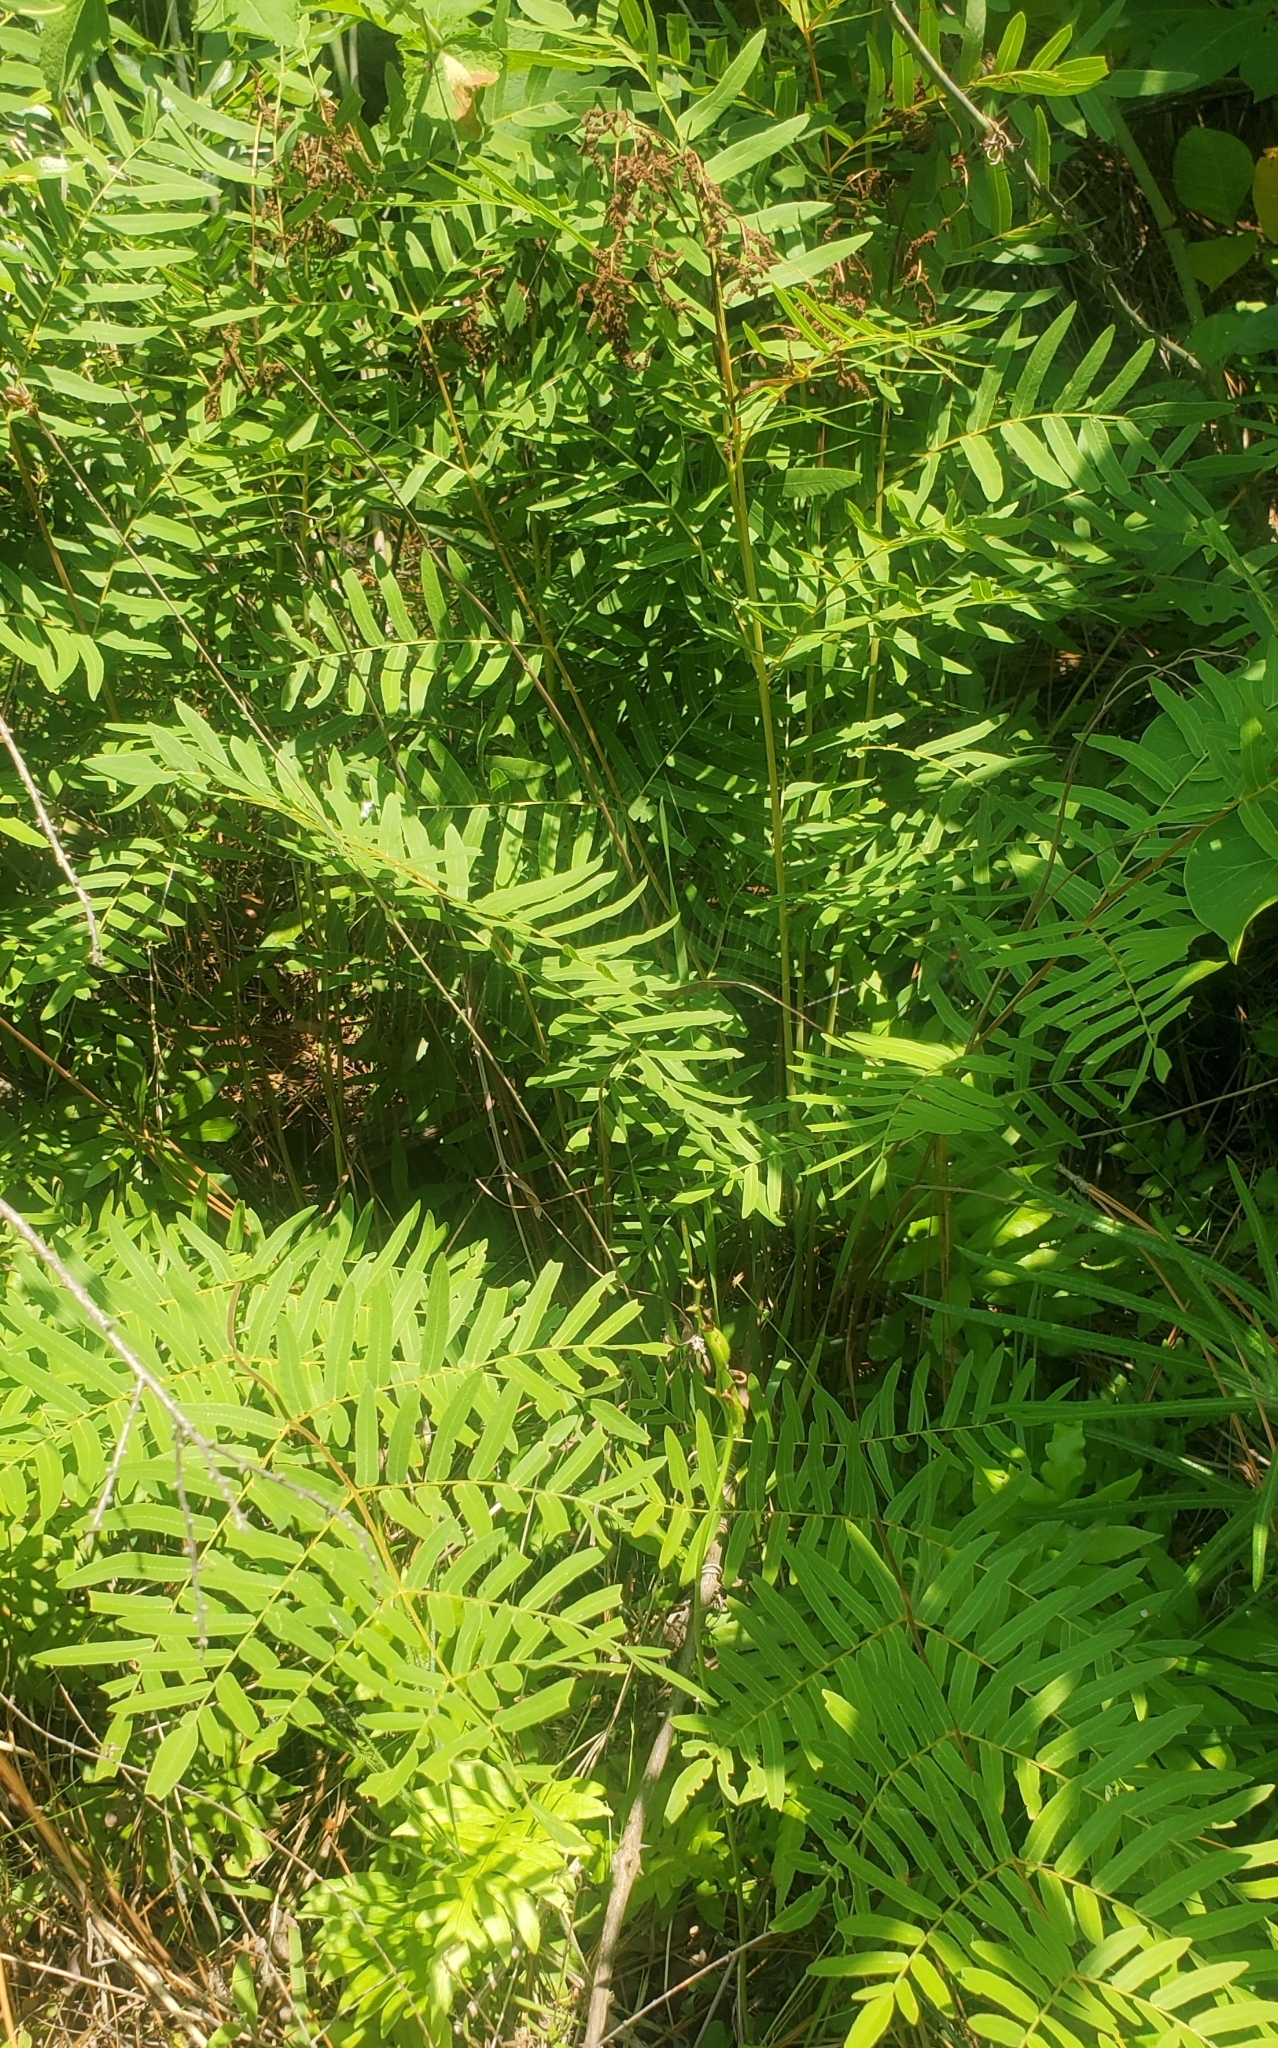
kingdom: Plantae
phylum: Tracheophyta
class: Polypodiopsida
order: Osmundales
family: Osmundaceae
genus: Osmunda
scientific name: Osmunda spectabilis
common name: American royal fern
